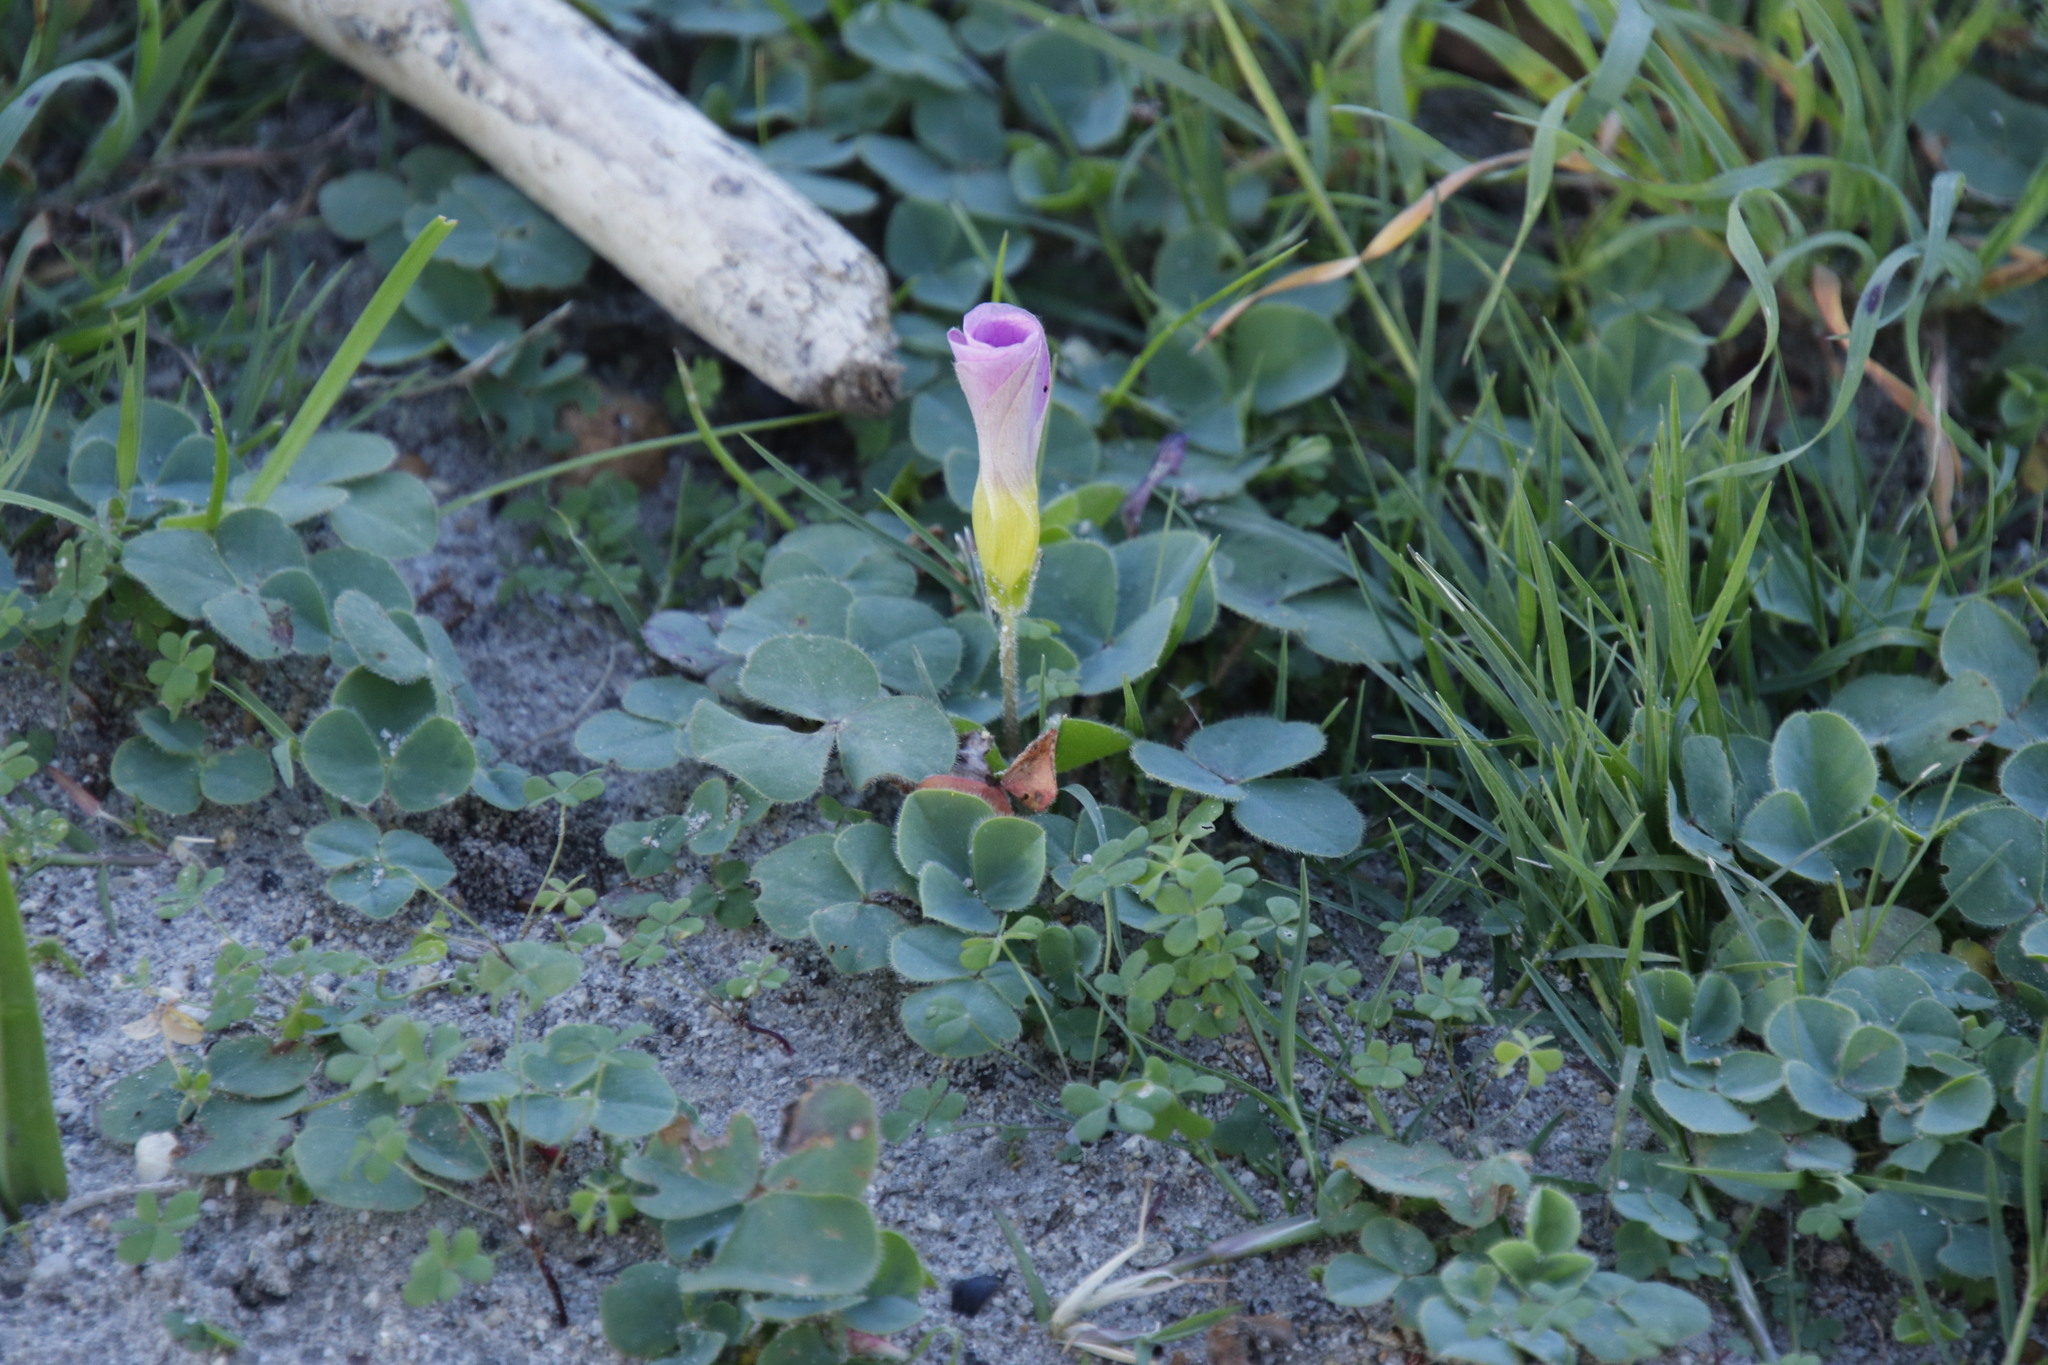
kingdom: Plantae
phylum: Tracheophyta
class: Magnoliopsida
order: Oxalidales
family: Oxalidaceae
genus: Oxalis
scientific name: Oxalis purpurea
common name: Purple woodsorrel
